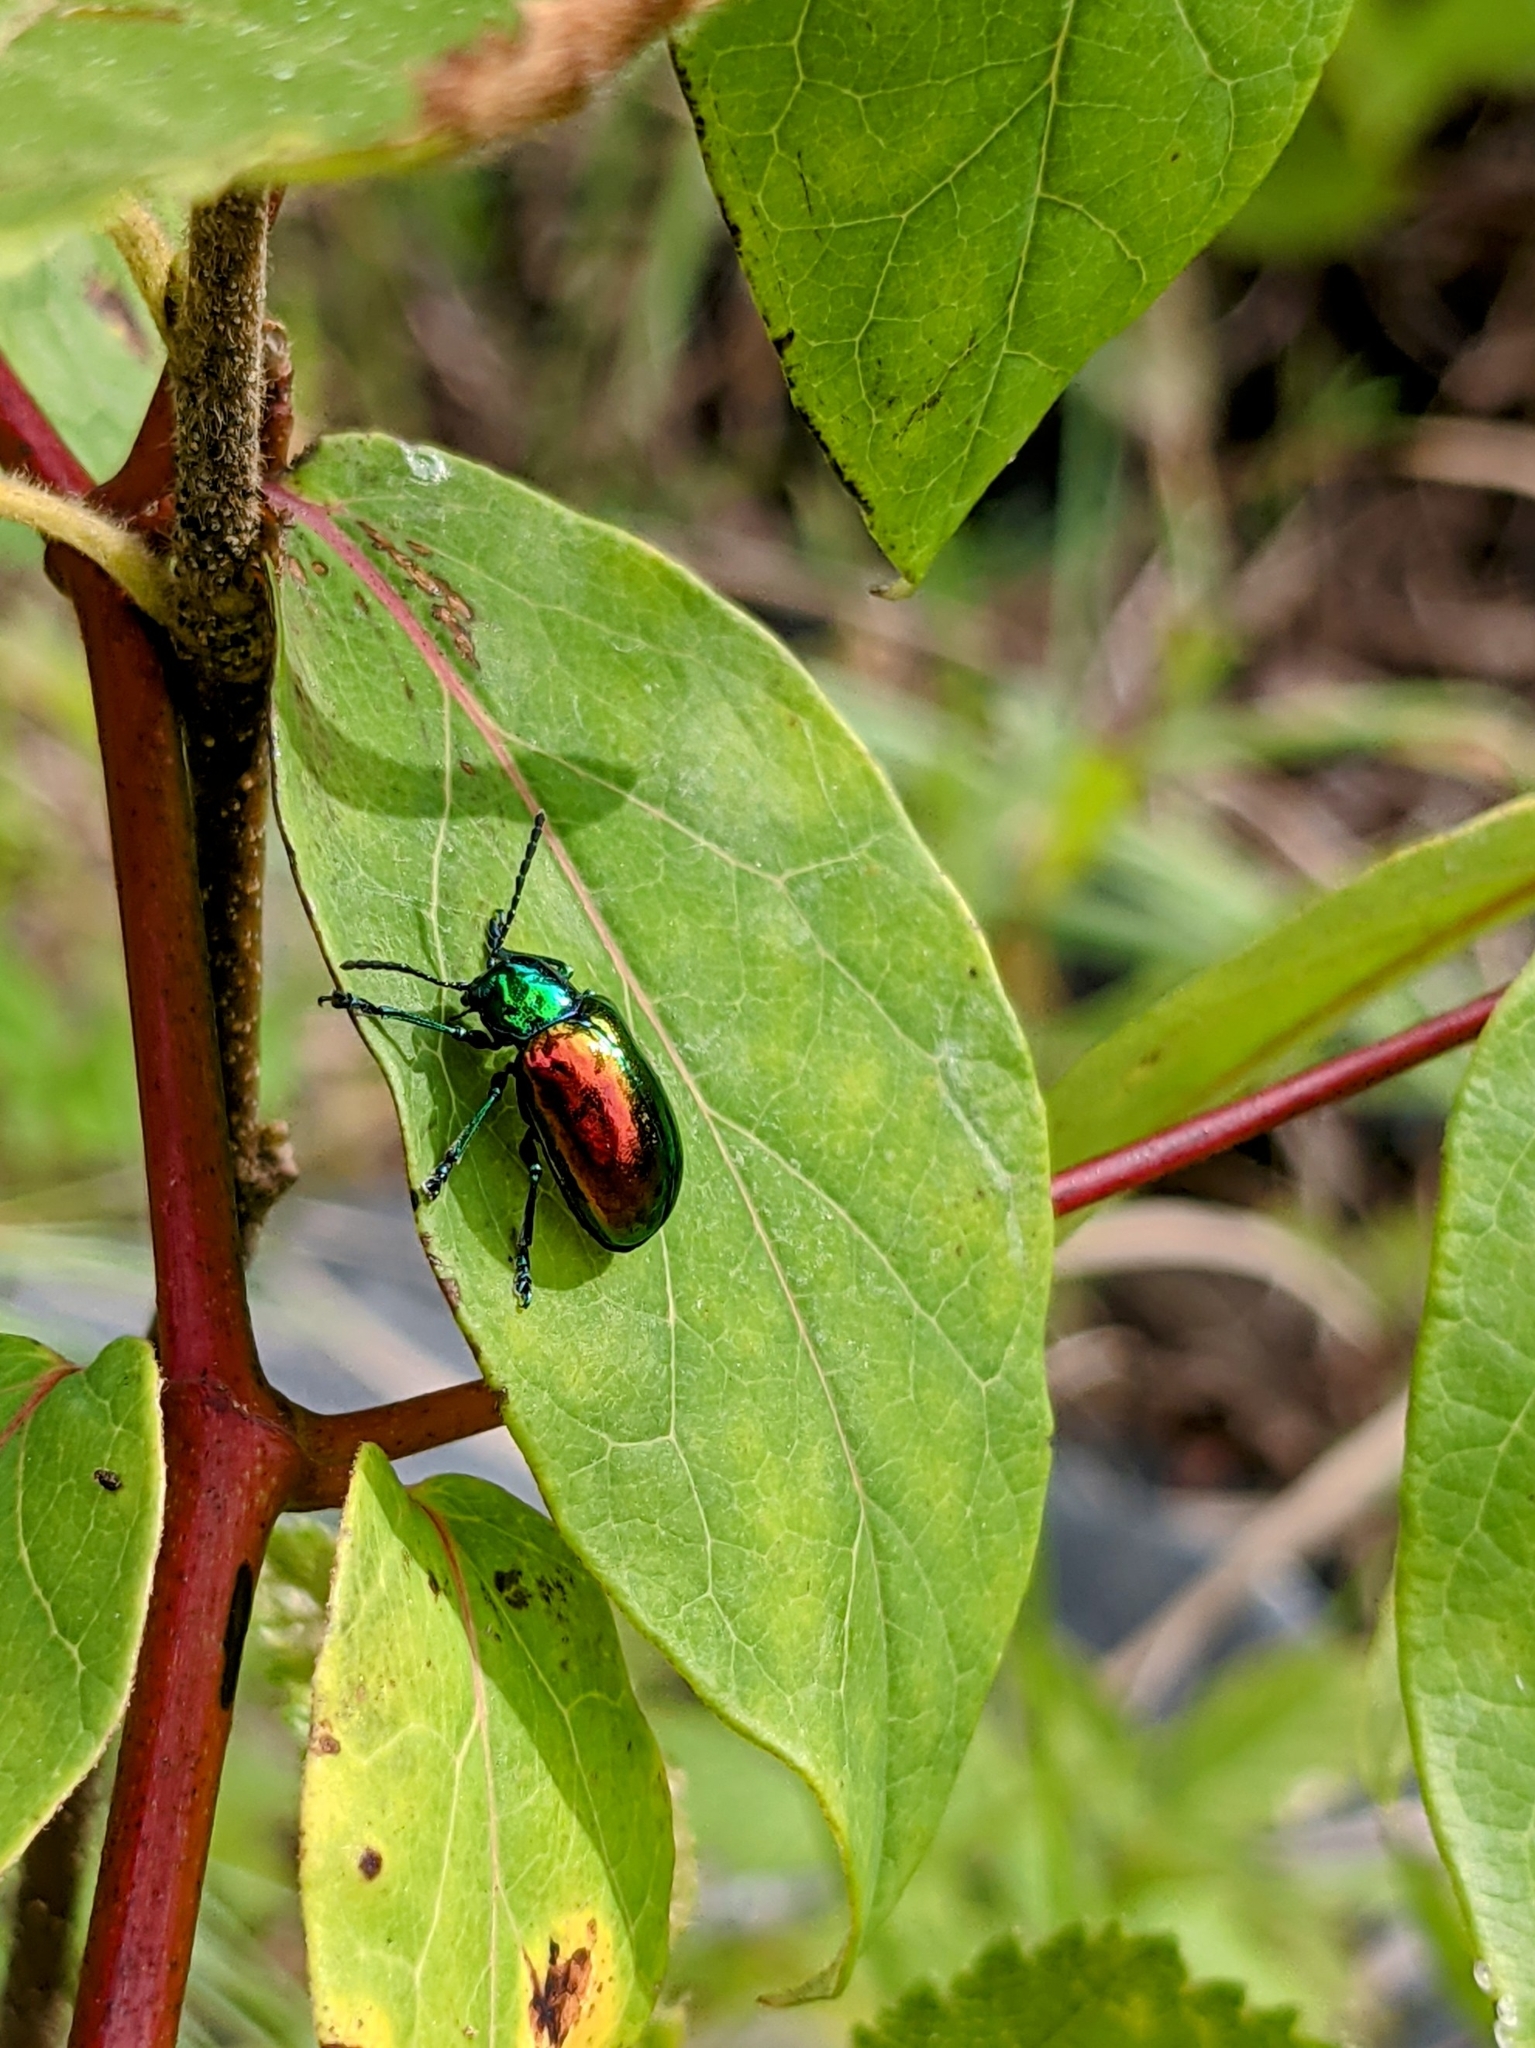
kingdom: Animalia
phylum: Arthropoda
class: Insecta
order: Coleoptera
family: Chrysomelidae
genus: Chrysochus
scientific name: Chrysochus auratus
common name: Dogbane leaf beetle
